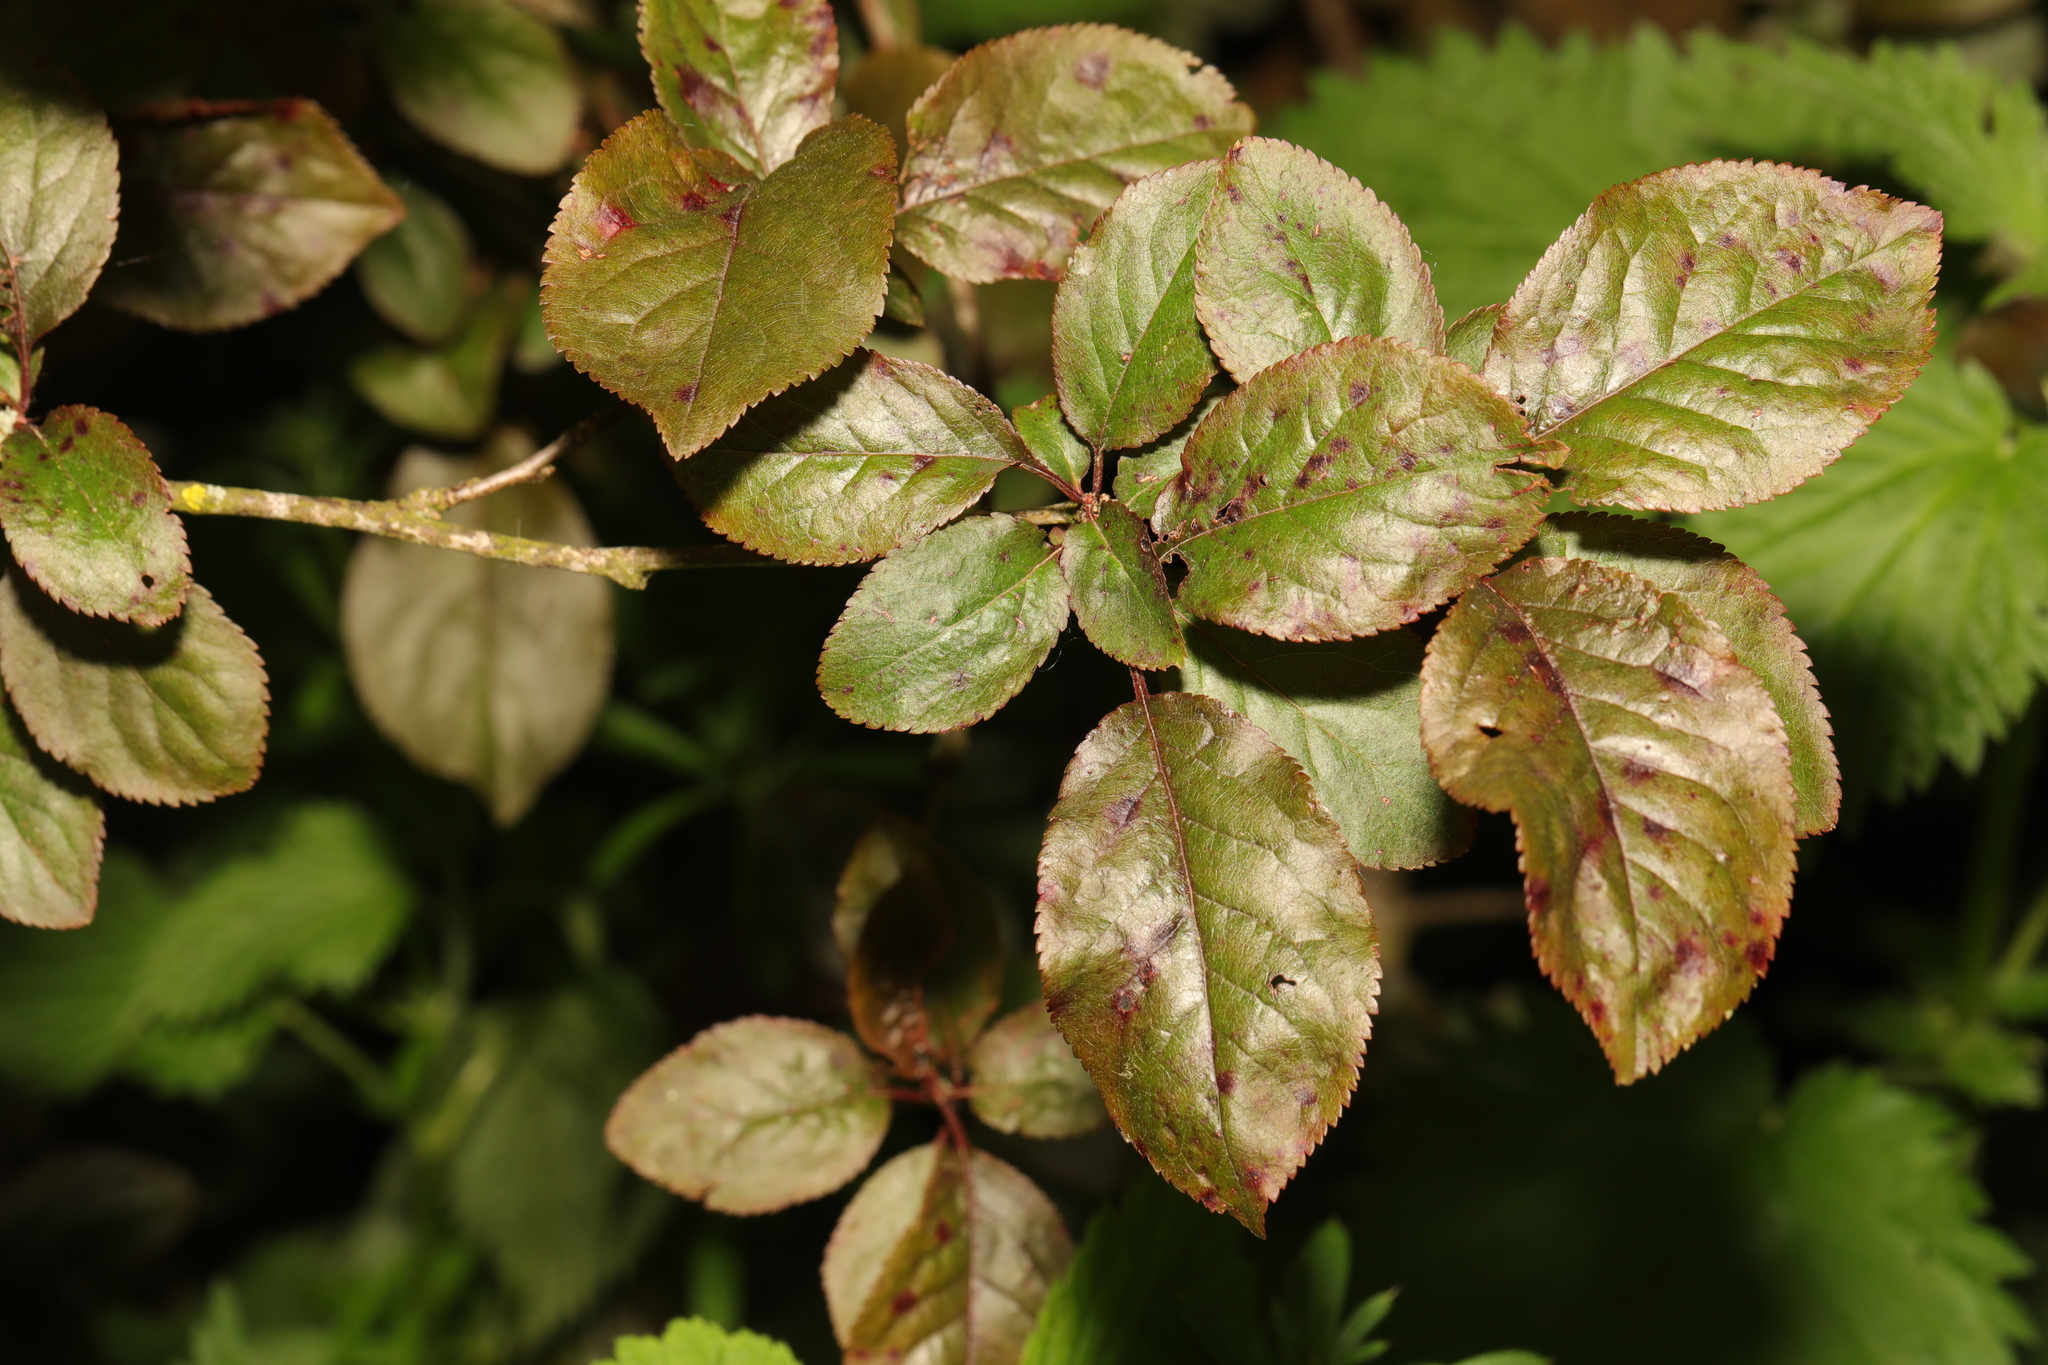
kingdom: Plantae
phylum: Tracheophyta
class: Magnoliopsida
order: Rosales
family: Rosaceae
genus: Prunus
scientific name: Prunus cerasifera
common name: Cherry plum
